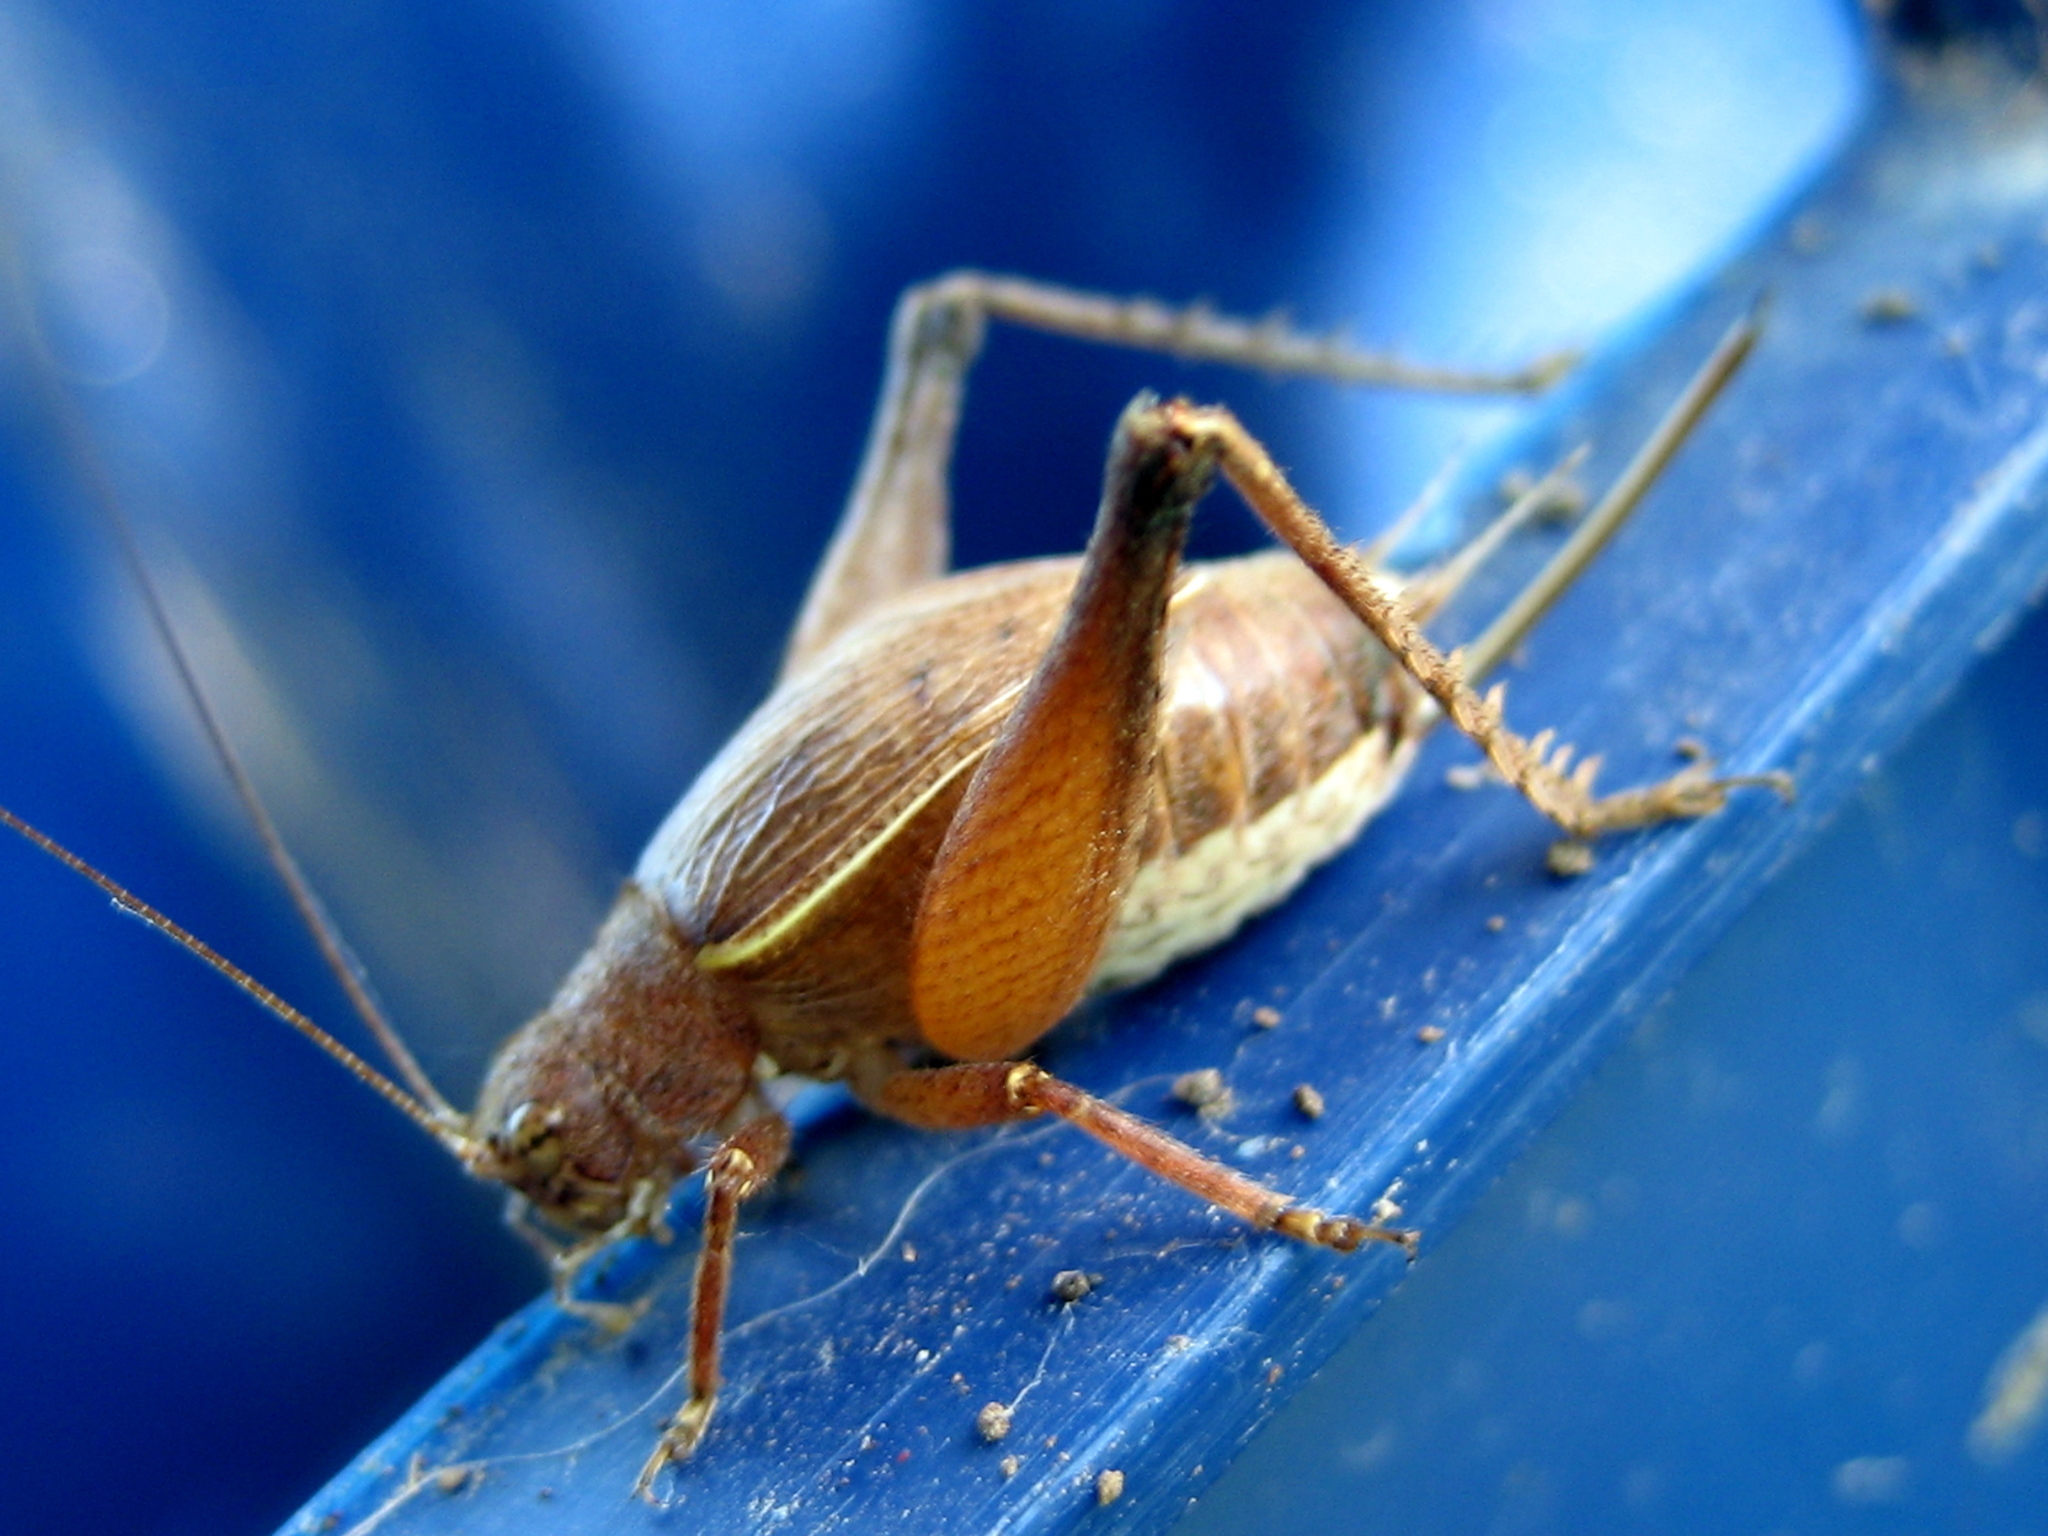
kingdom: Animalia
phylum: Arthropoda
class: Insecta
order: Orthoptera
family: Gryllidae
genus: Hapithus
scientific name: Hapithus agitator
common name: Restless bush cricket
